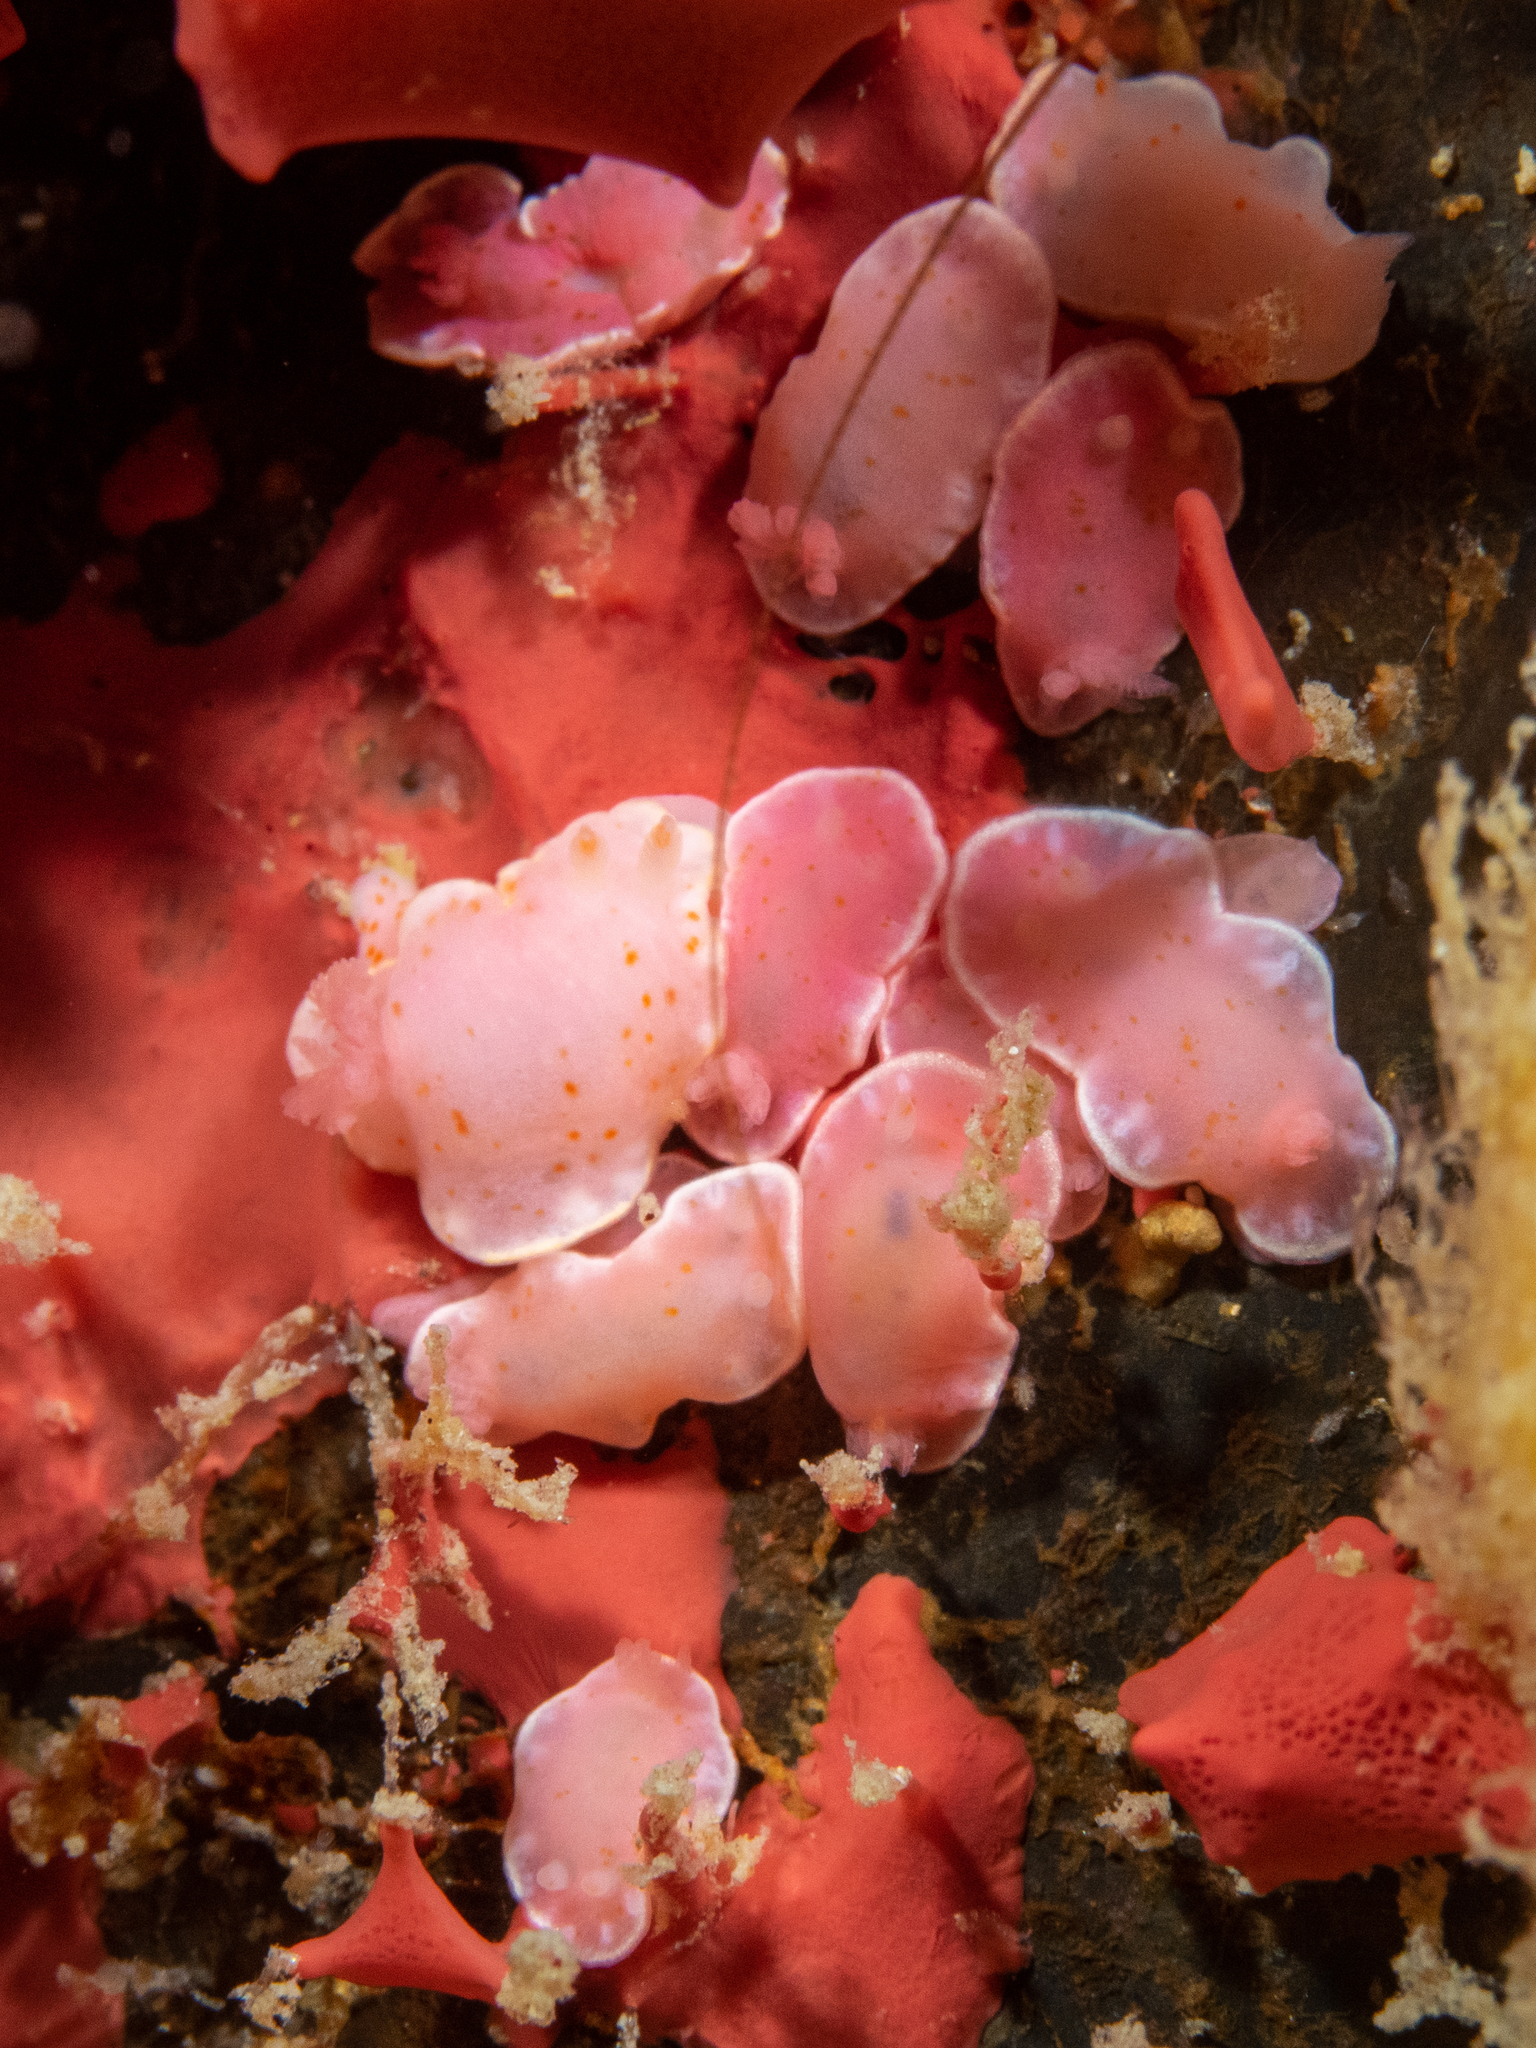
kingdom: Animalia
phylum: Mollusca
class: Gastropoda
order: Nudibranchia
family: Chromodorididae
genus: Verconia
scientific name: Verconia haliclona
